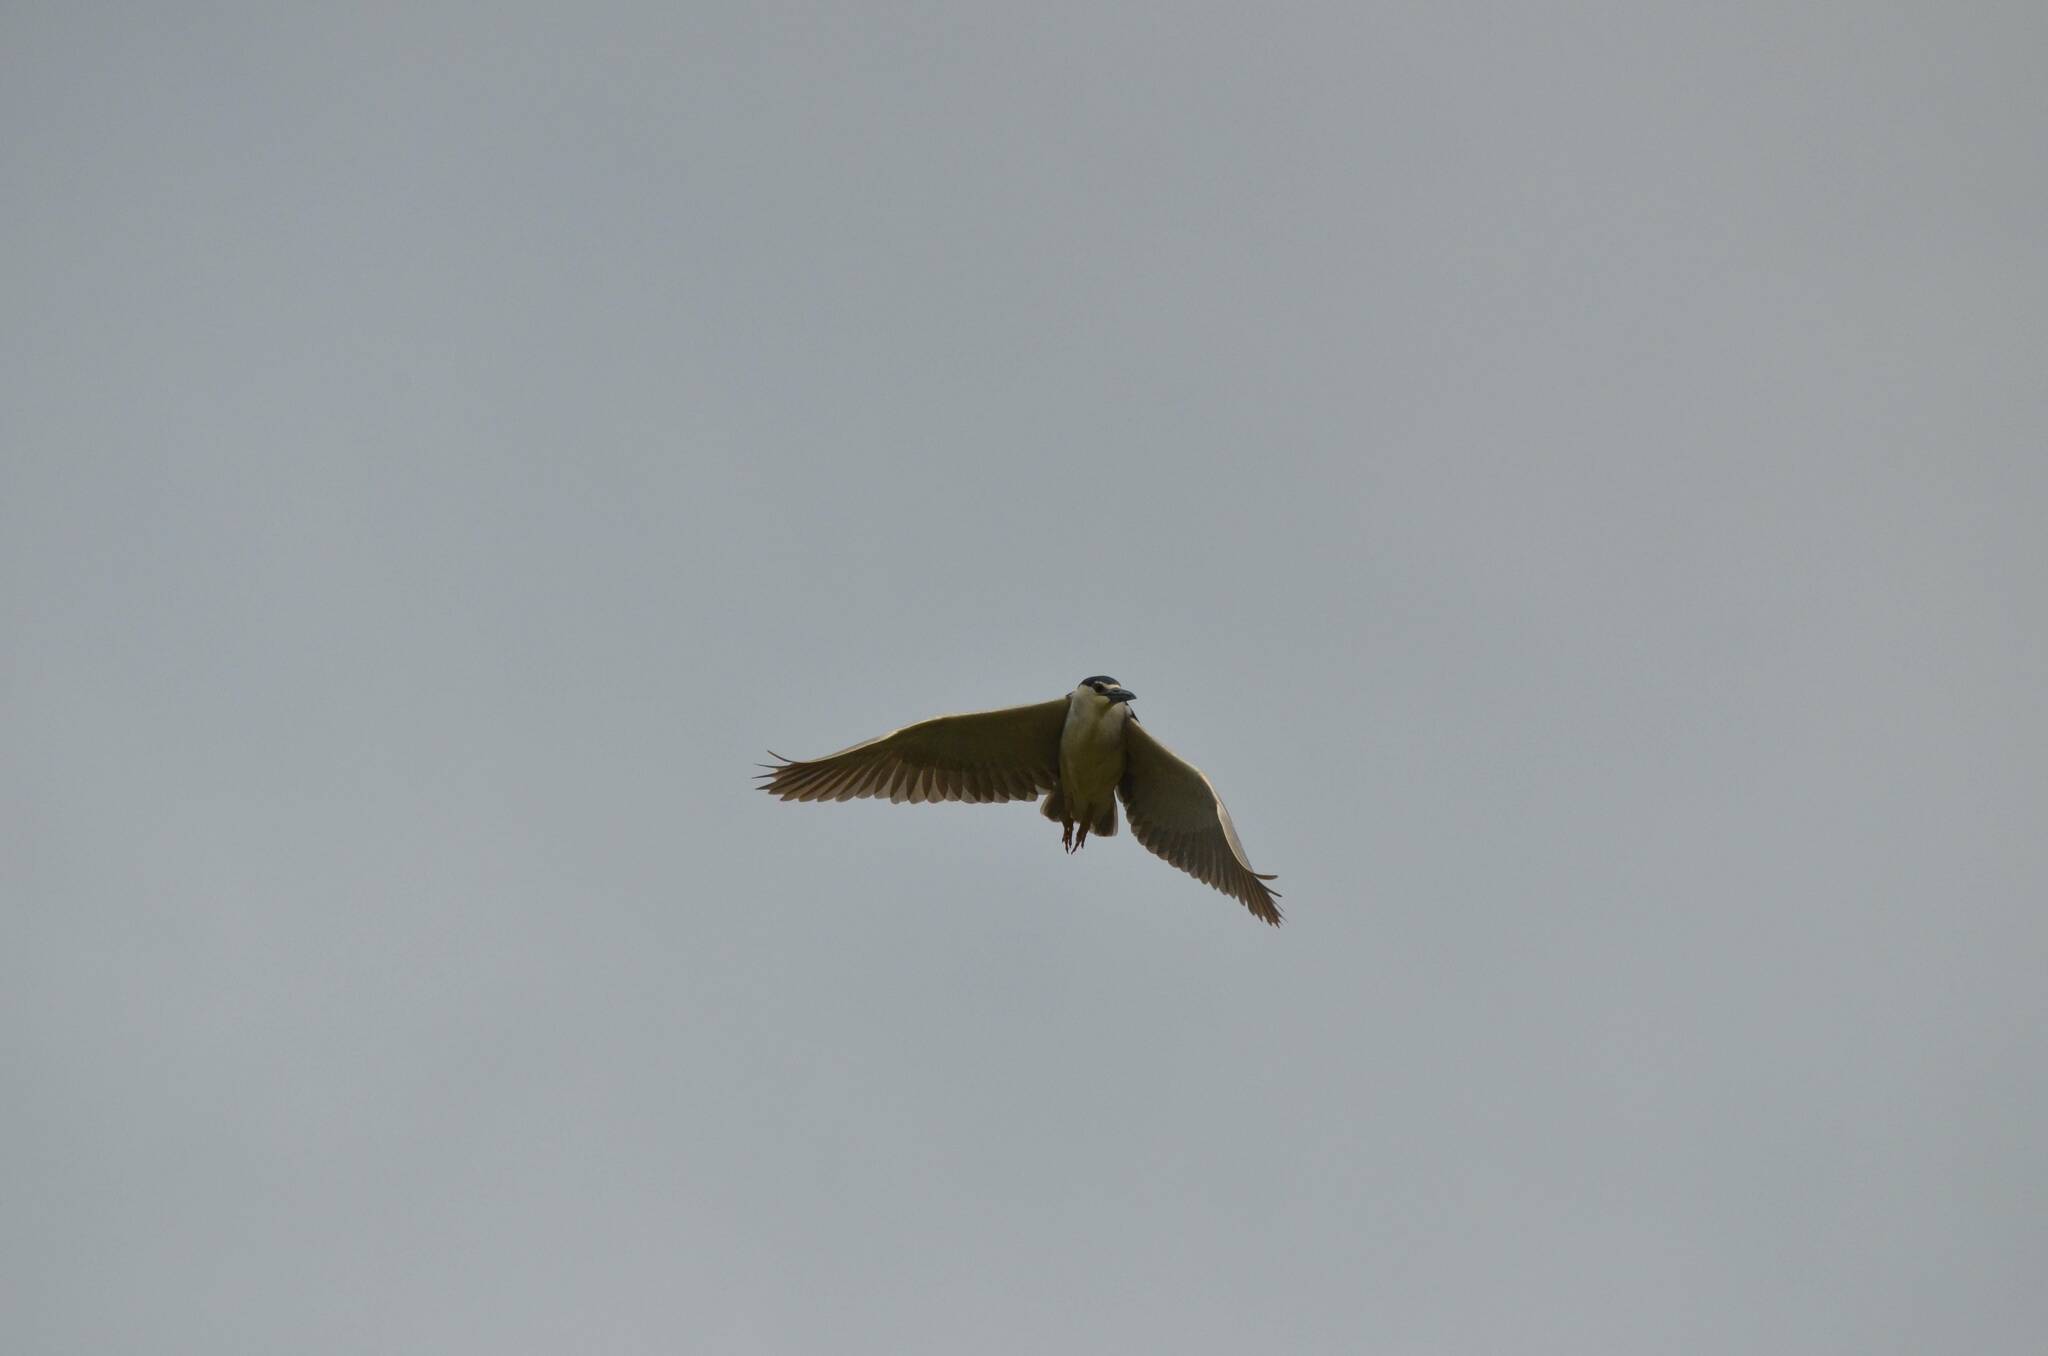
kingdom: Animalia
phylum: Chordata
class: Aves
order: Pelecaniformes
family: Ardeidae
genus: Nycticorax
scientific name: Nycticorax nycticorax
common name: Black-crowned night heron
